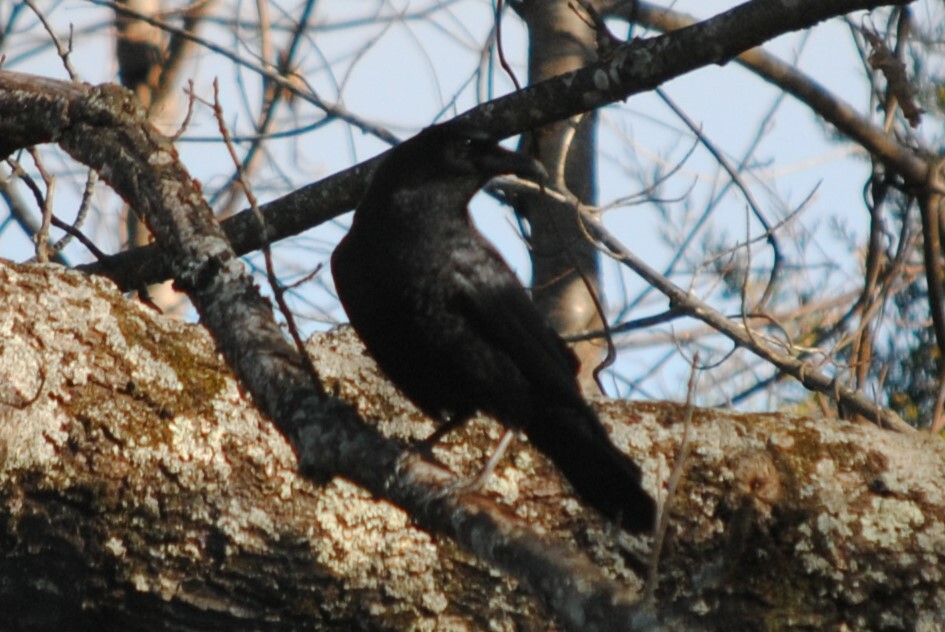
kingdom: Animalia
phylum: Chordata
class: Aves
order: Passeriformes
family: Corvidae
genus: Corvus
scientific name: Corvus brachyrhynchos
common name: American crow
